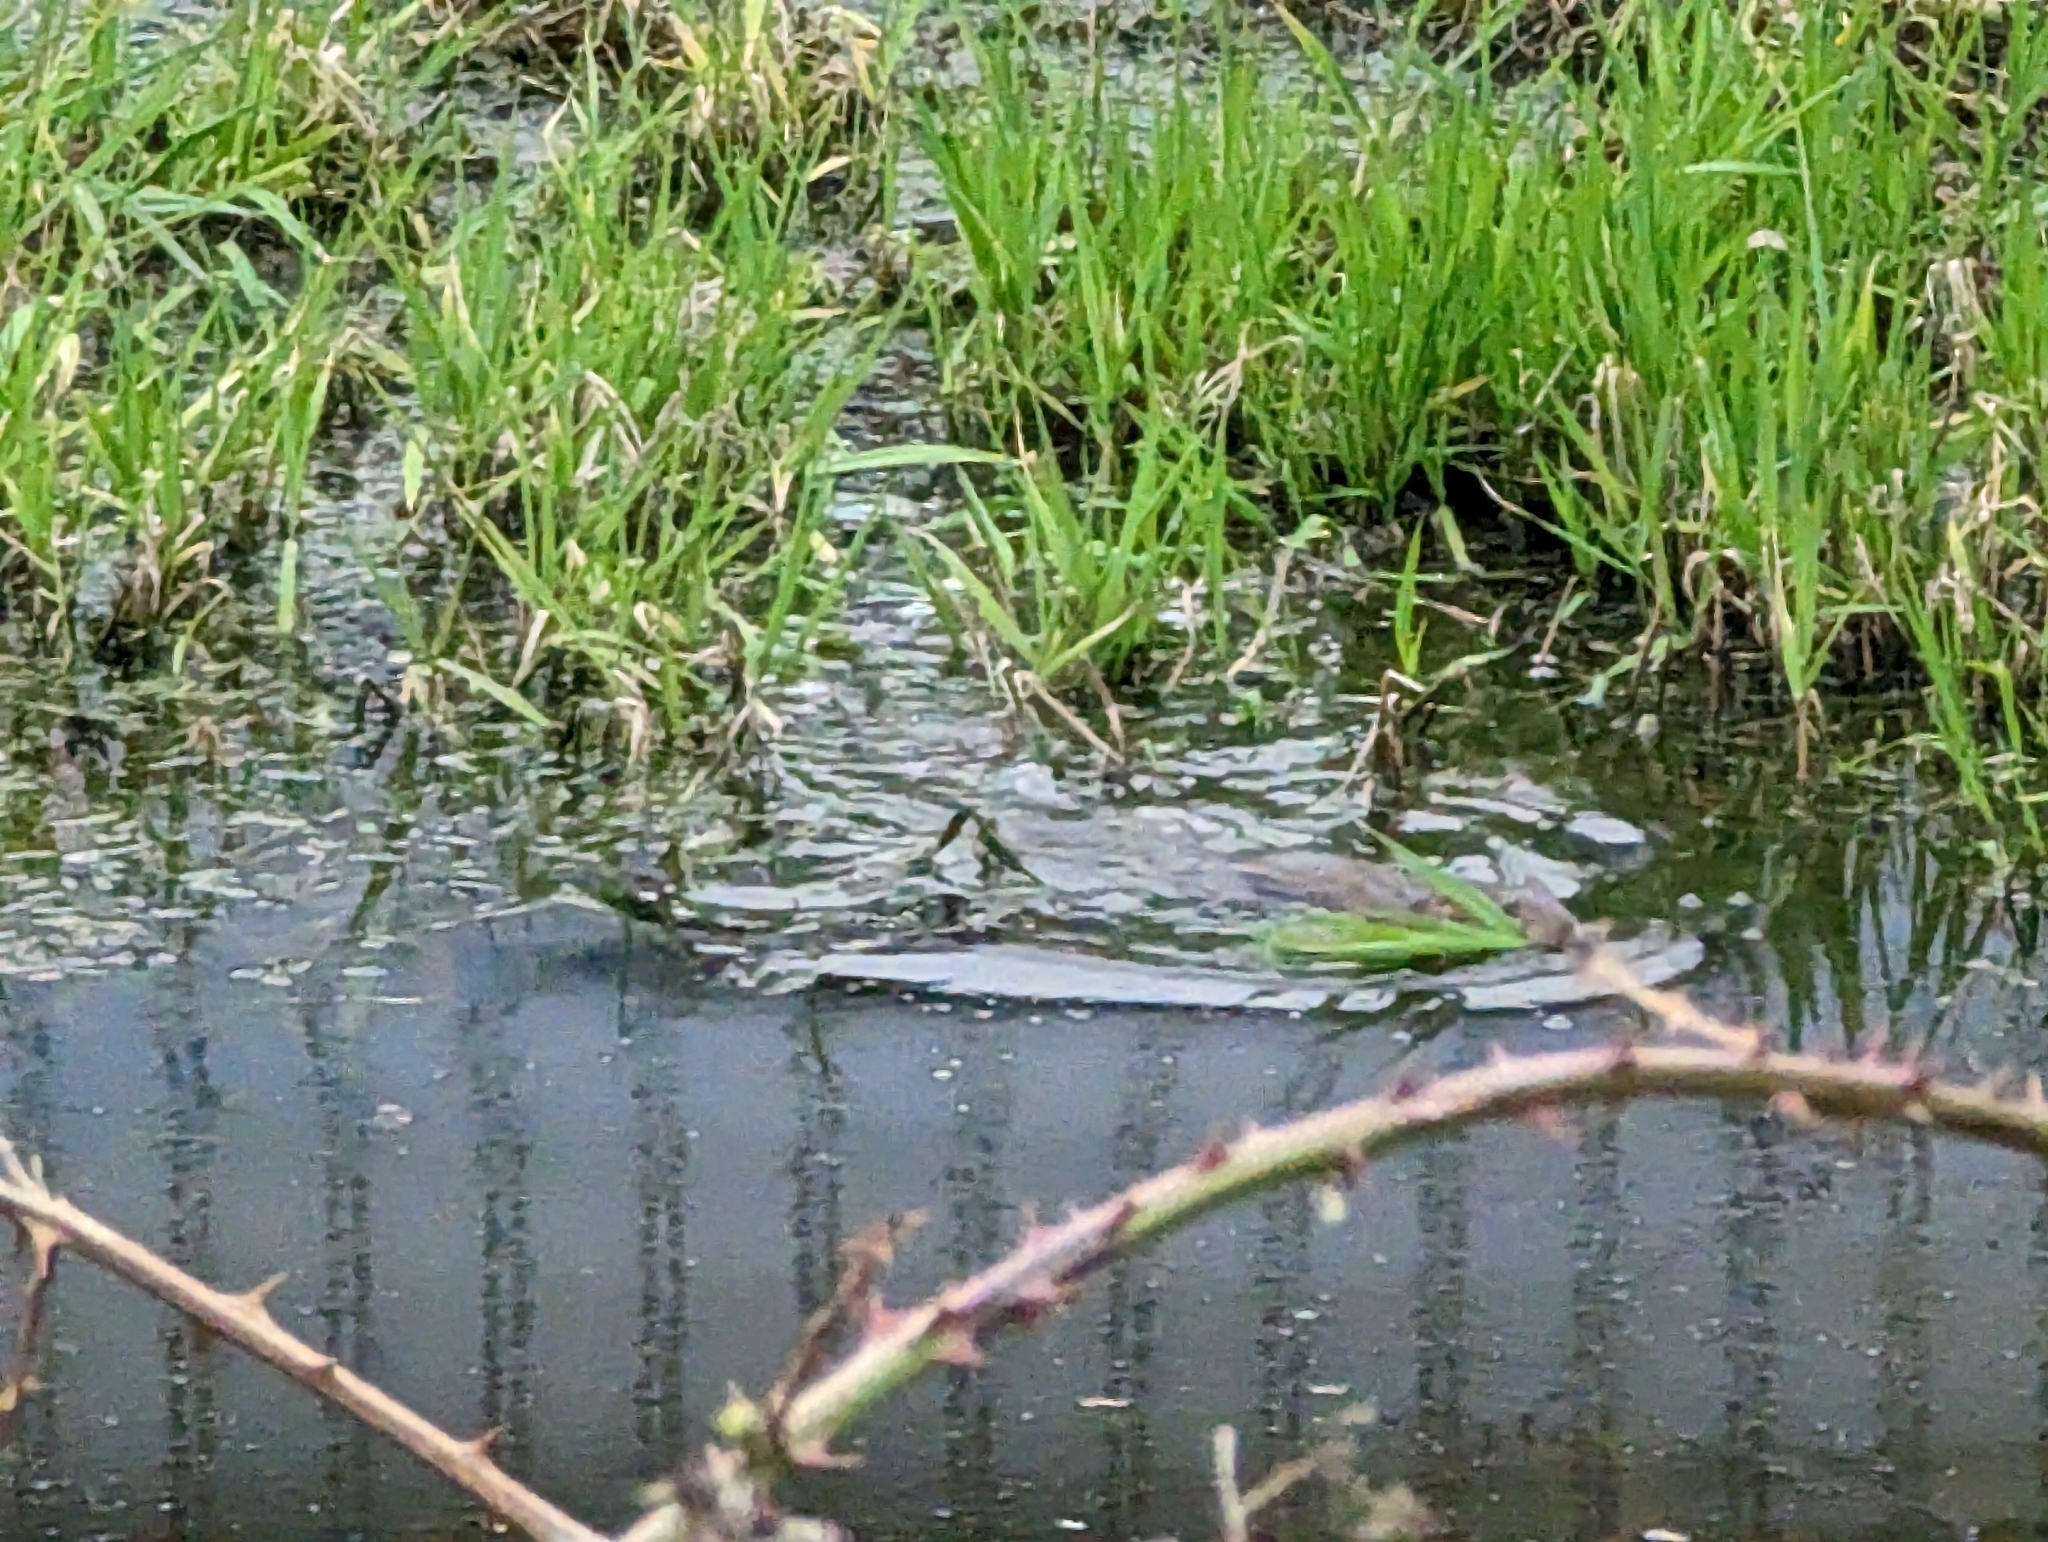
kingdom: Animalia
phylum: Chordata
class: Mammalia
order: Rodentia
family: Cricetidae
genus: Ondatra
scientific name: Ondatra zibethicus
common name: Muskrat
